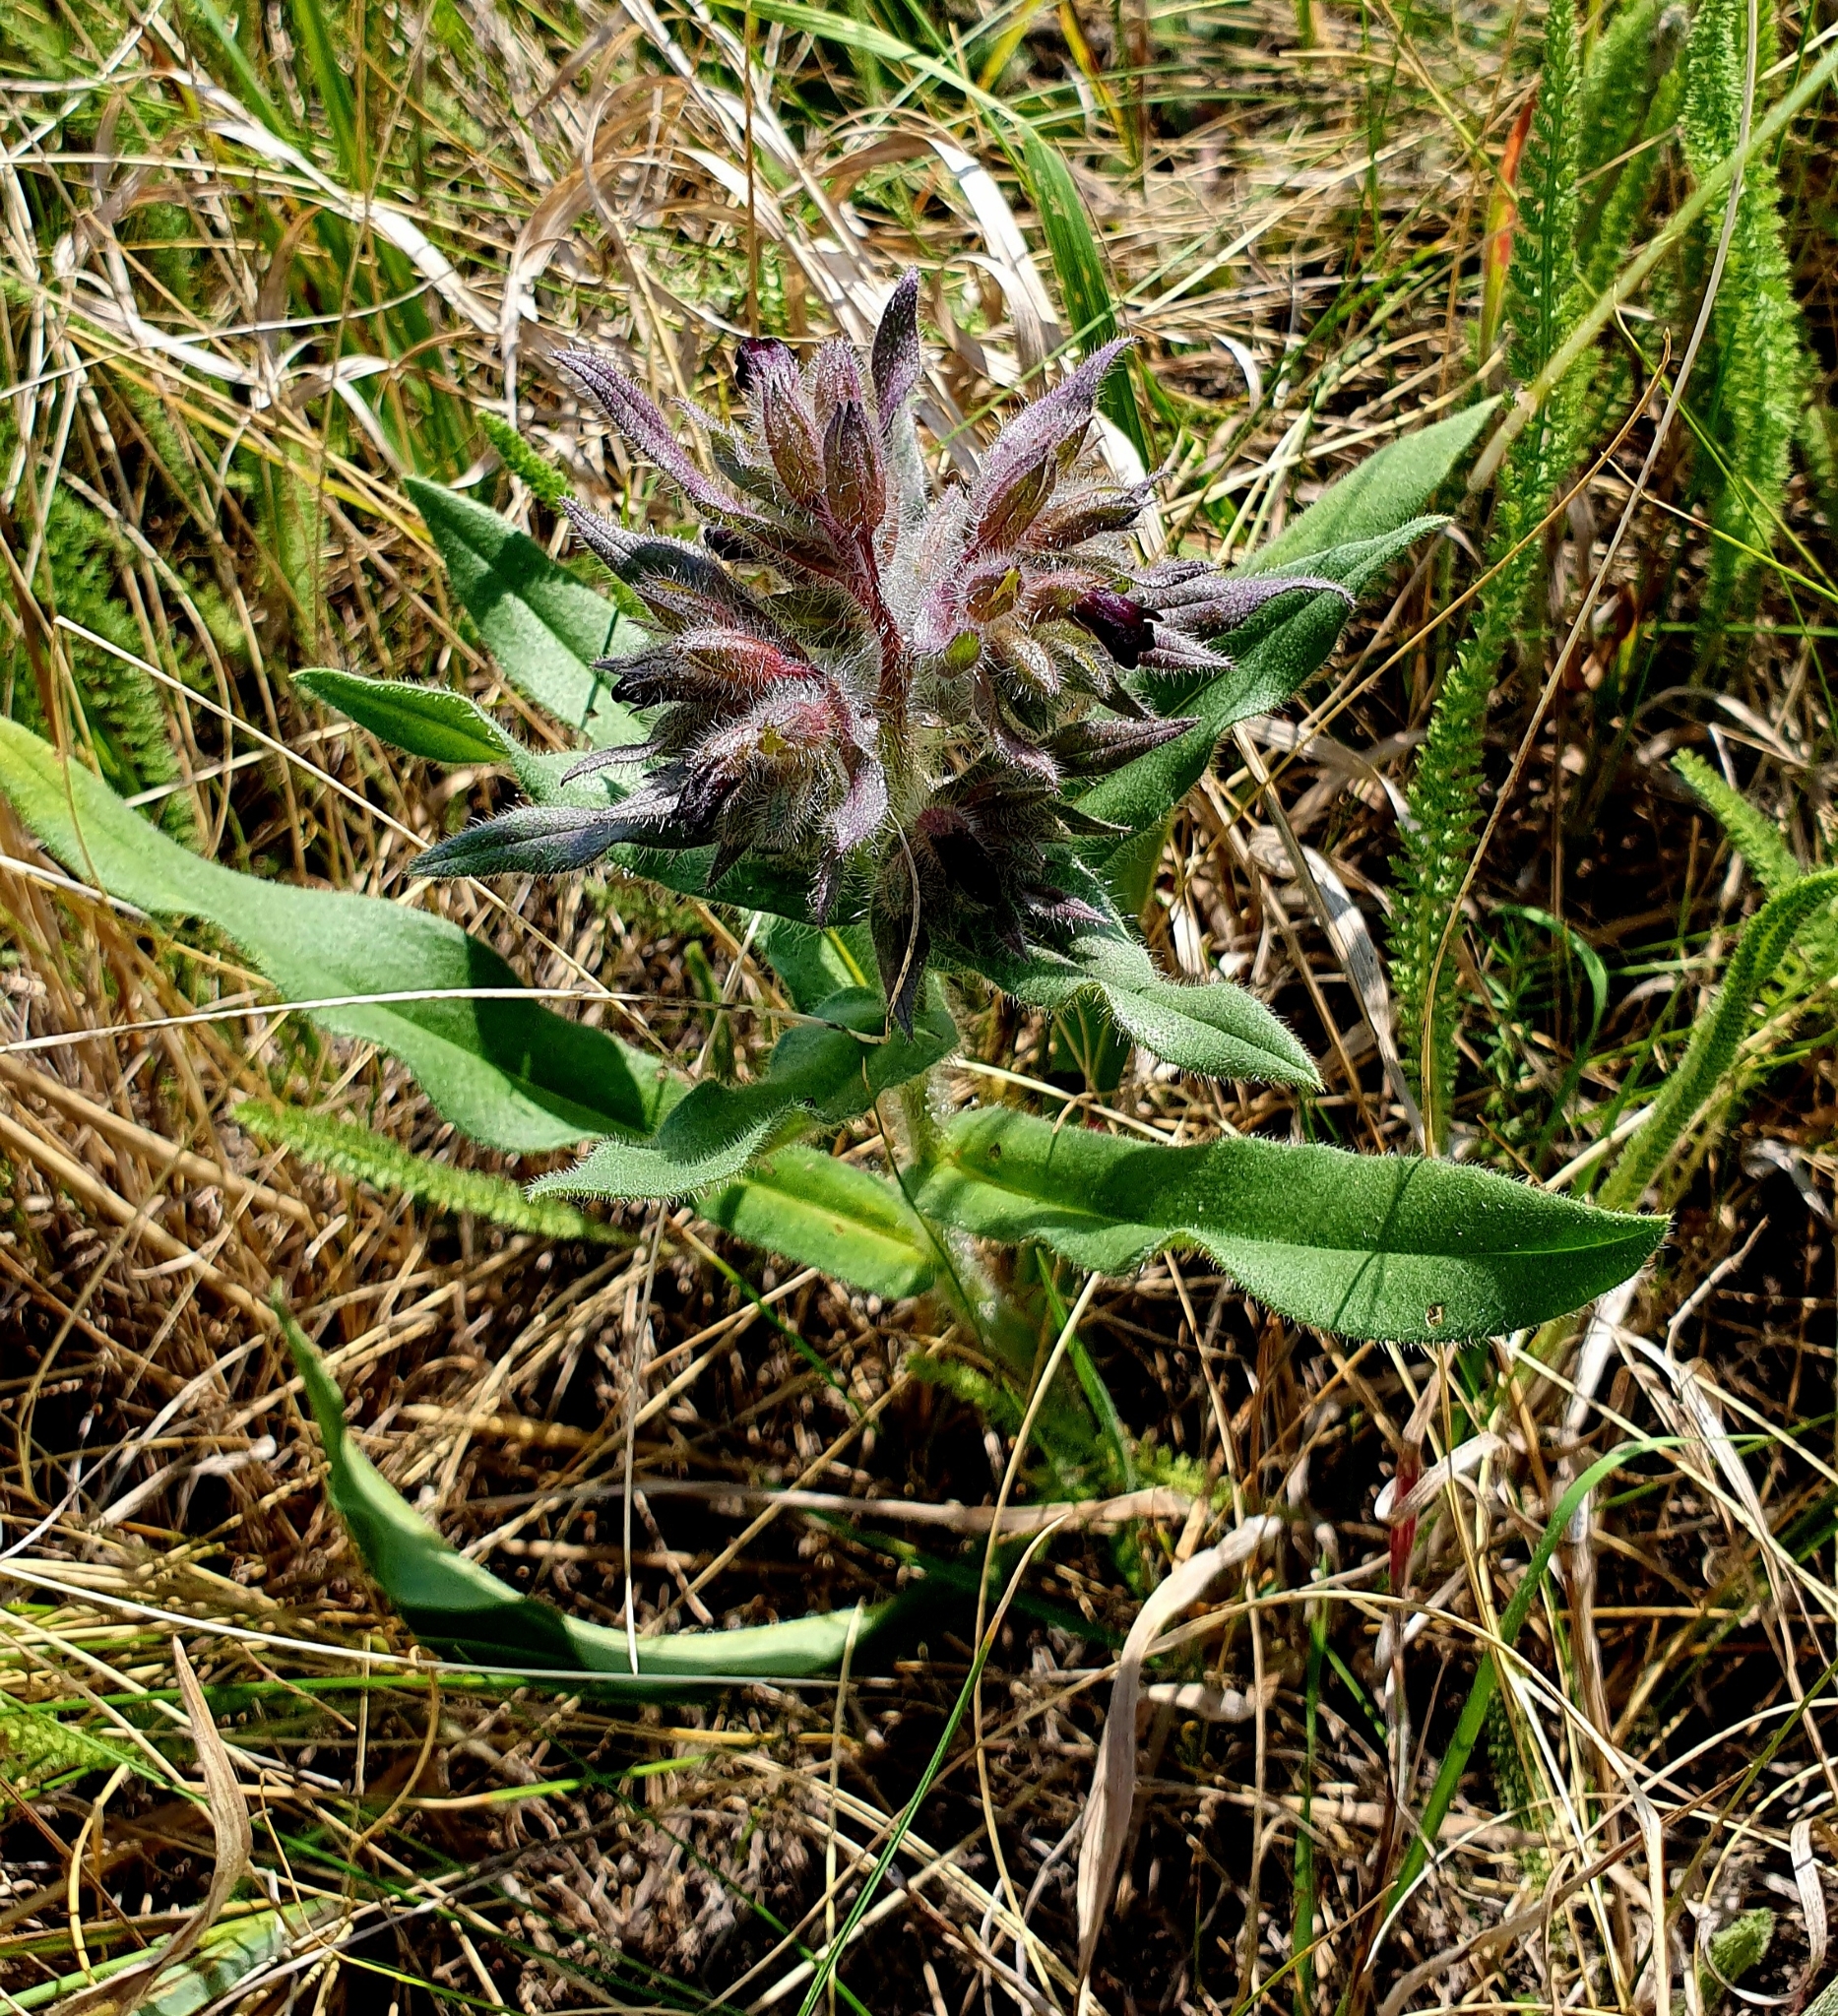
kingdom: Plantae
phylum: Tracheophyta
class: Magnoliopsida
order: Boraginales
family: Boraginaceae
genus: Nonea
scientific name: Nonea pulla
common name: Brown nonea
